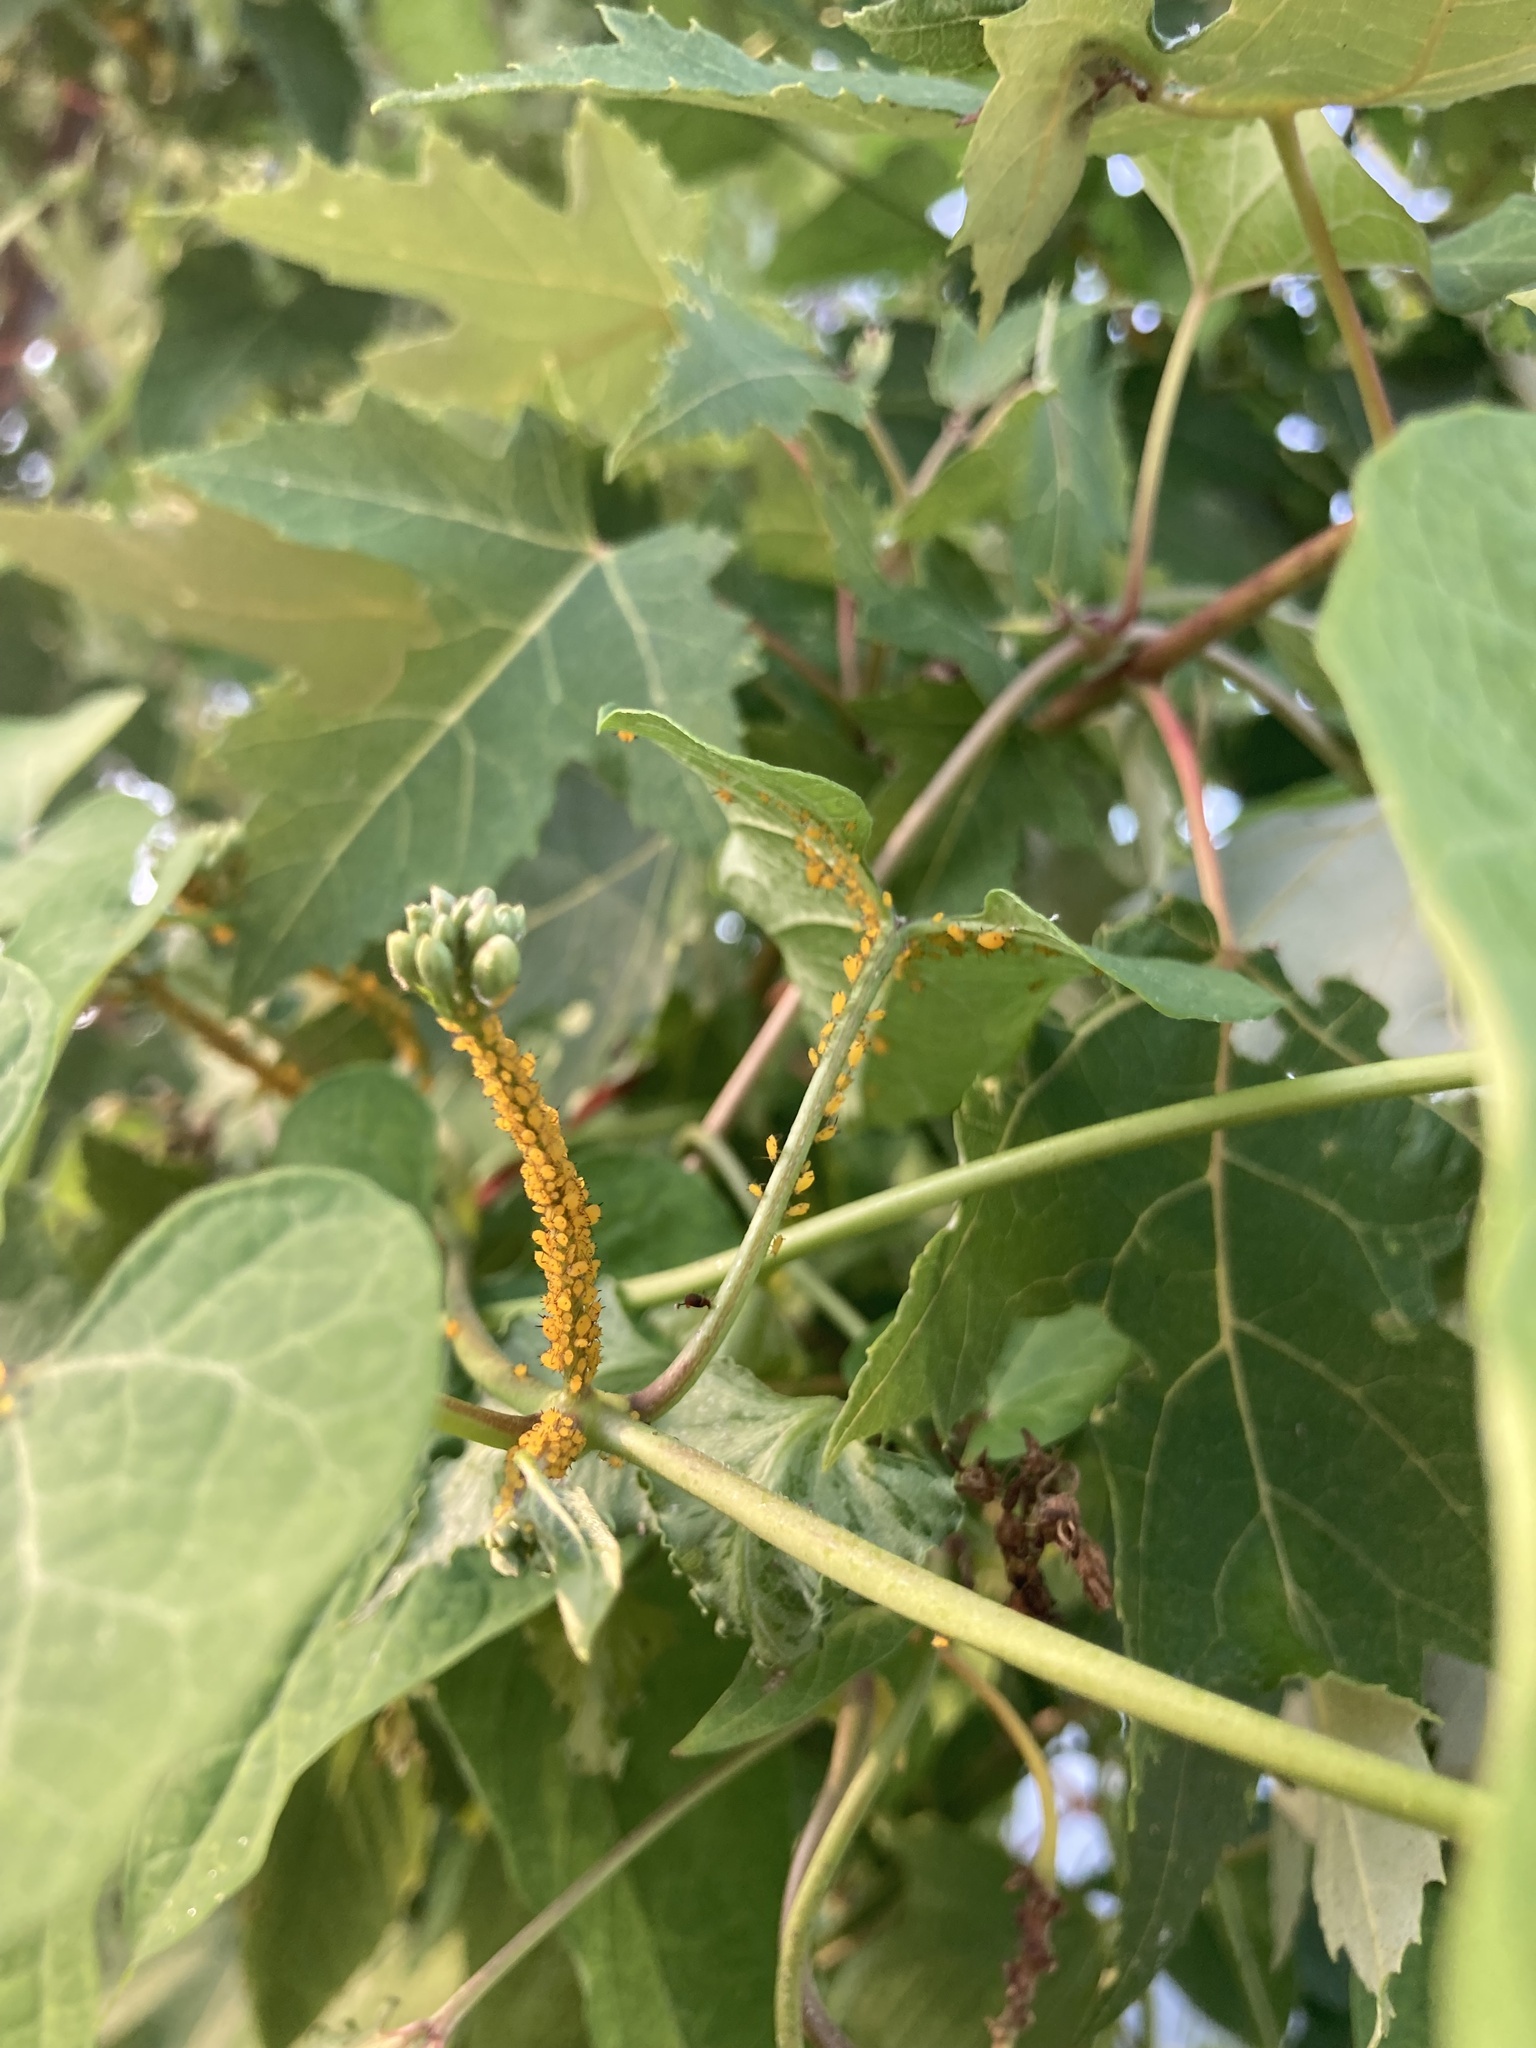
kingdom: Animalia
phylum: Arthropoda
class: Insecta
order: Hemiptera
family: Aphididae
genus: Aphis
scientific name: Aphis nerii
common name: Oleander aphid
